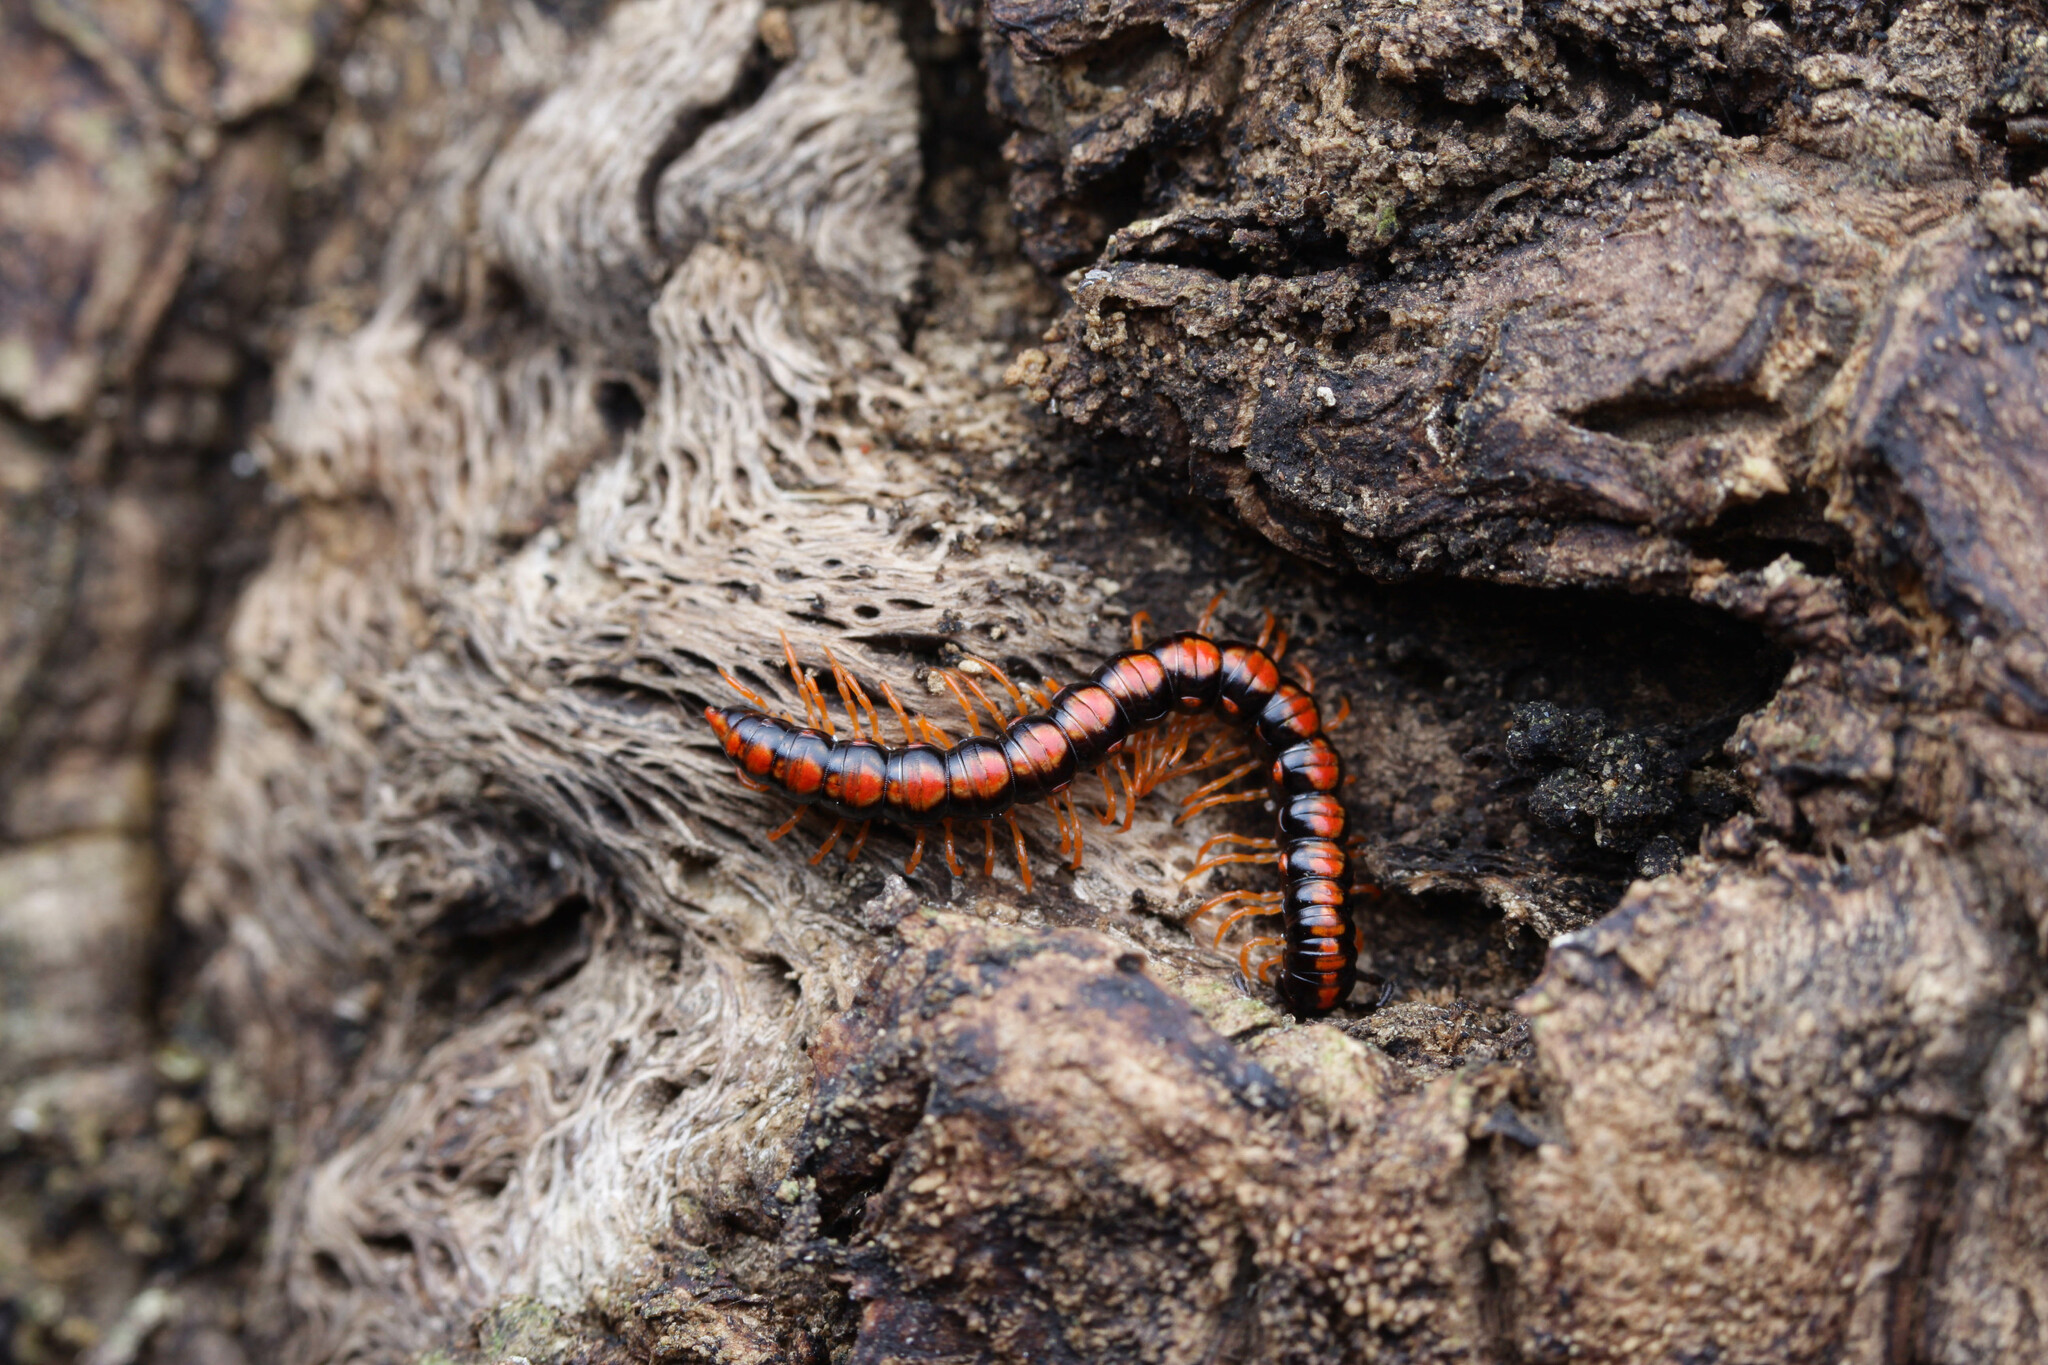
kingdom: Animalia
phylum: Arthropoda
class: Diplopoda
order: Polydesmida
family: Paradoxosomatidae
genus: Helicorthomorpha
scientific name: Helicorthomorpha holstii
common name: Millipede
